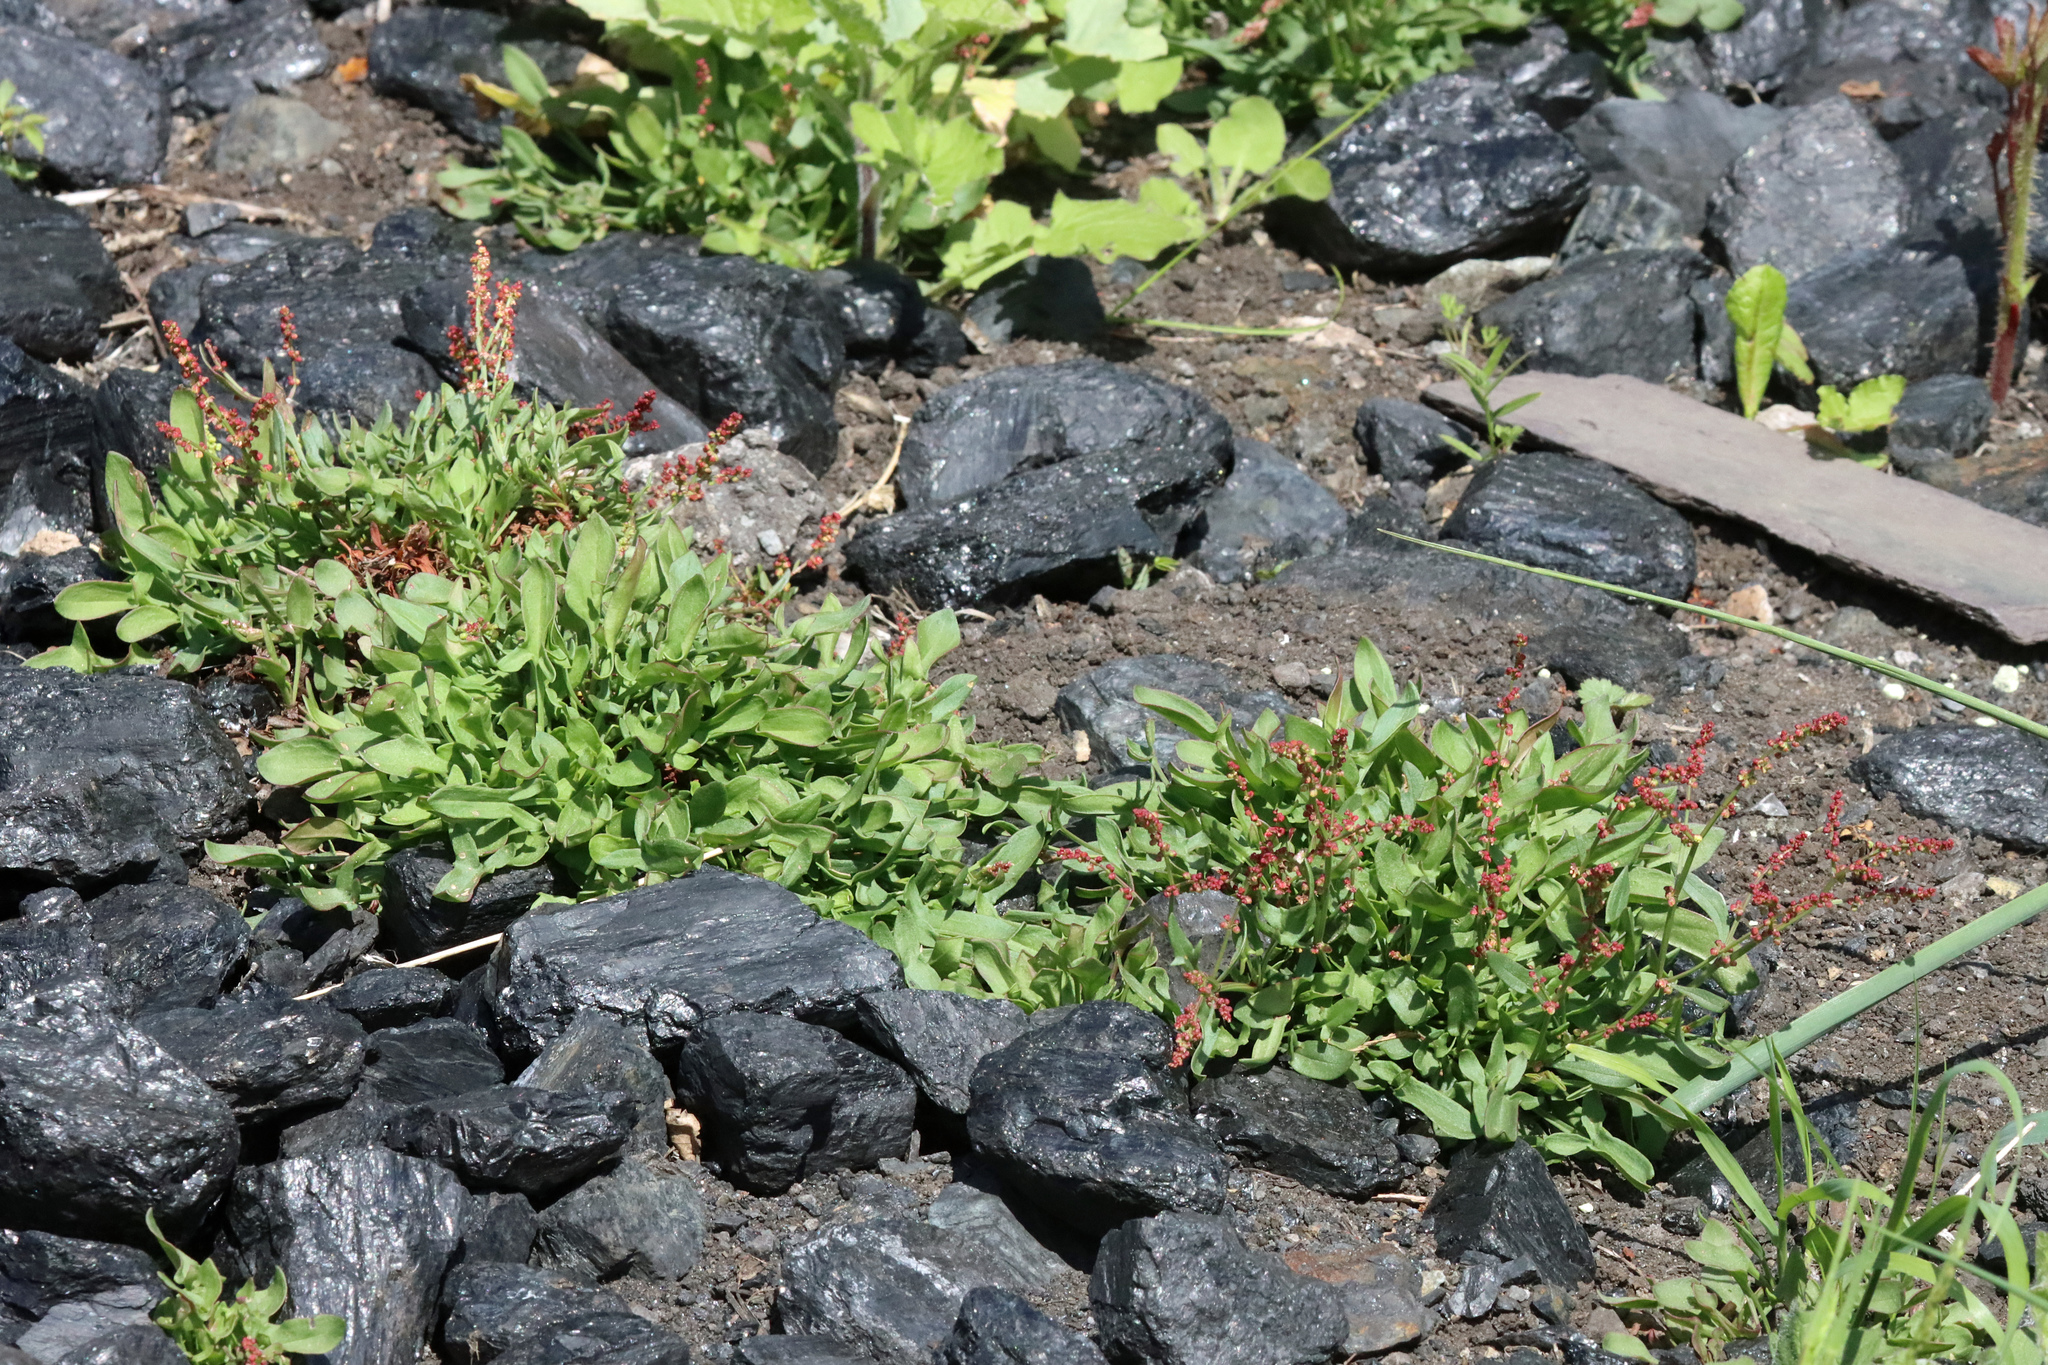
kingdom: Plantae
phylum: Tracheophyta
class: Magnoliopsida
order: Caryophyllales
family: Polygonaceae
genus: Rumex
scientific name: Rumex acetosella
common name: Common sheep sorrel
